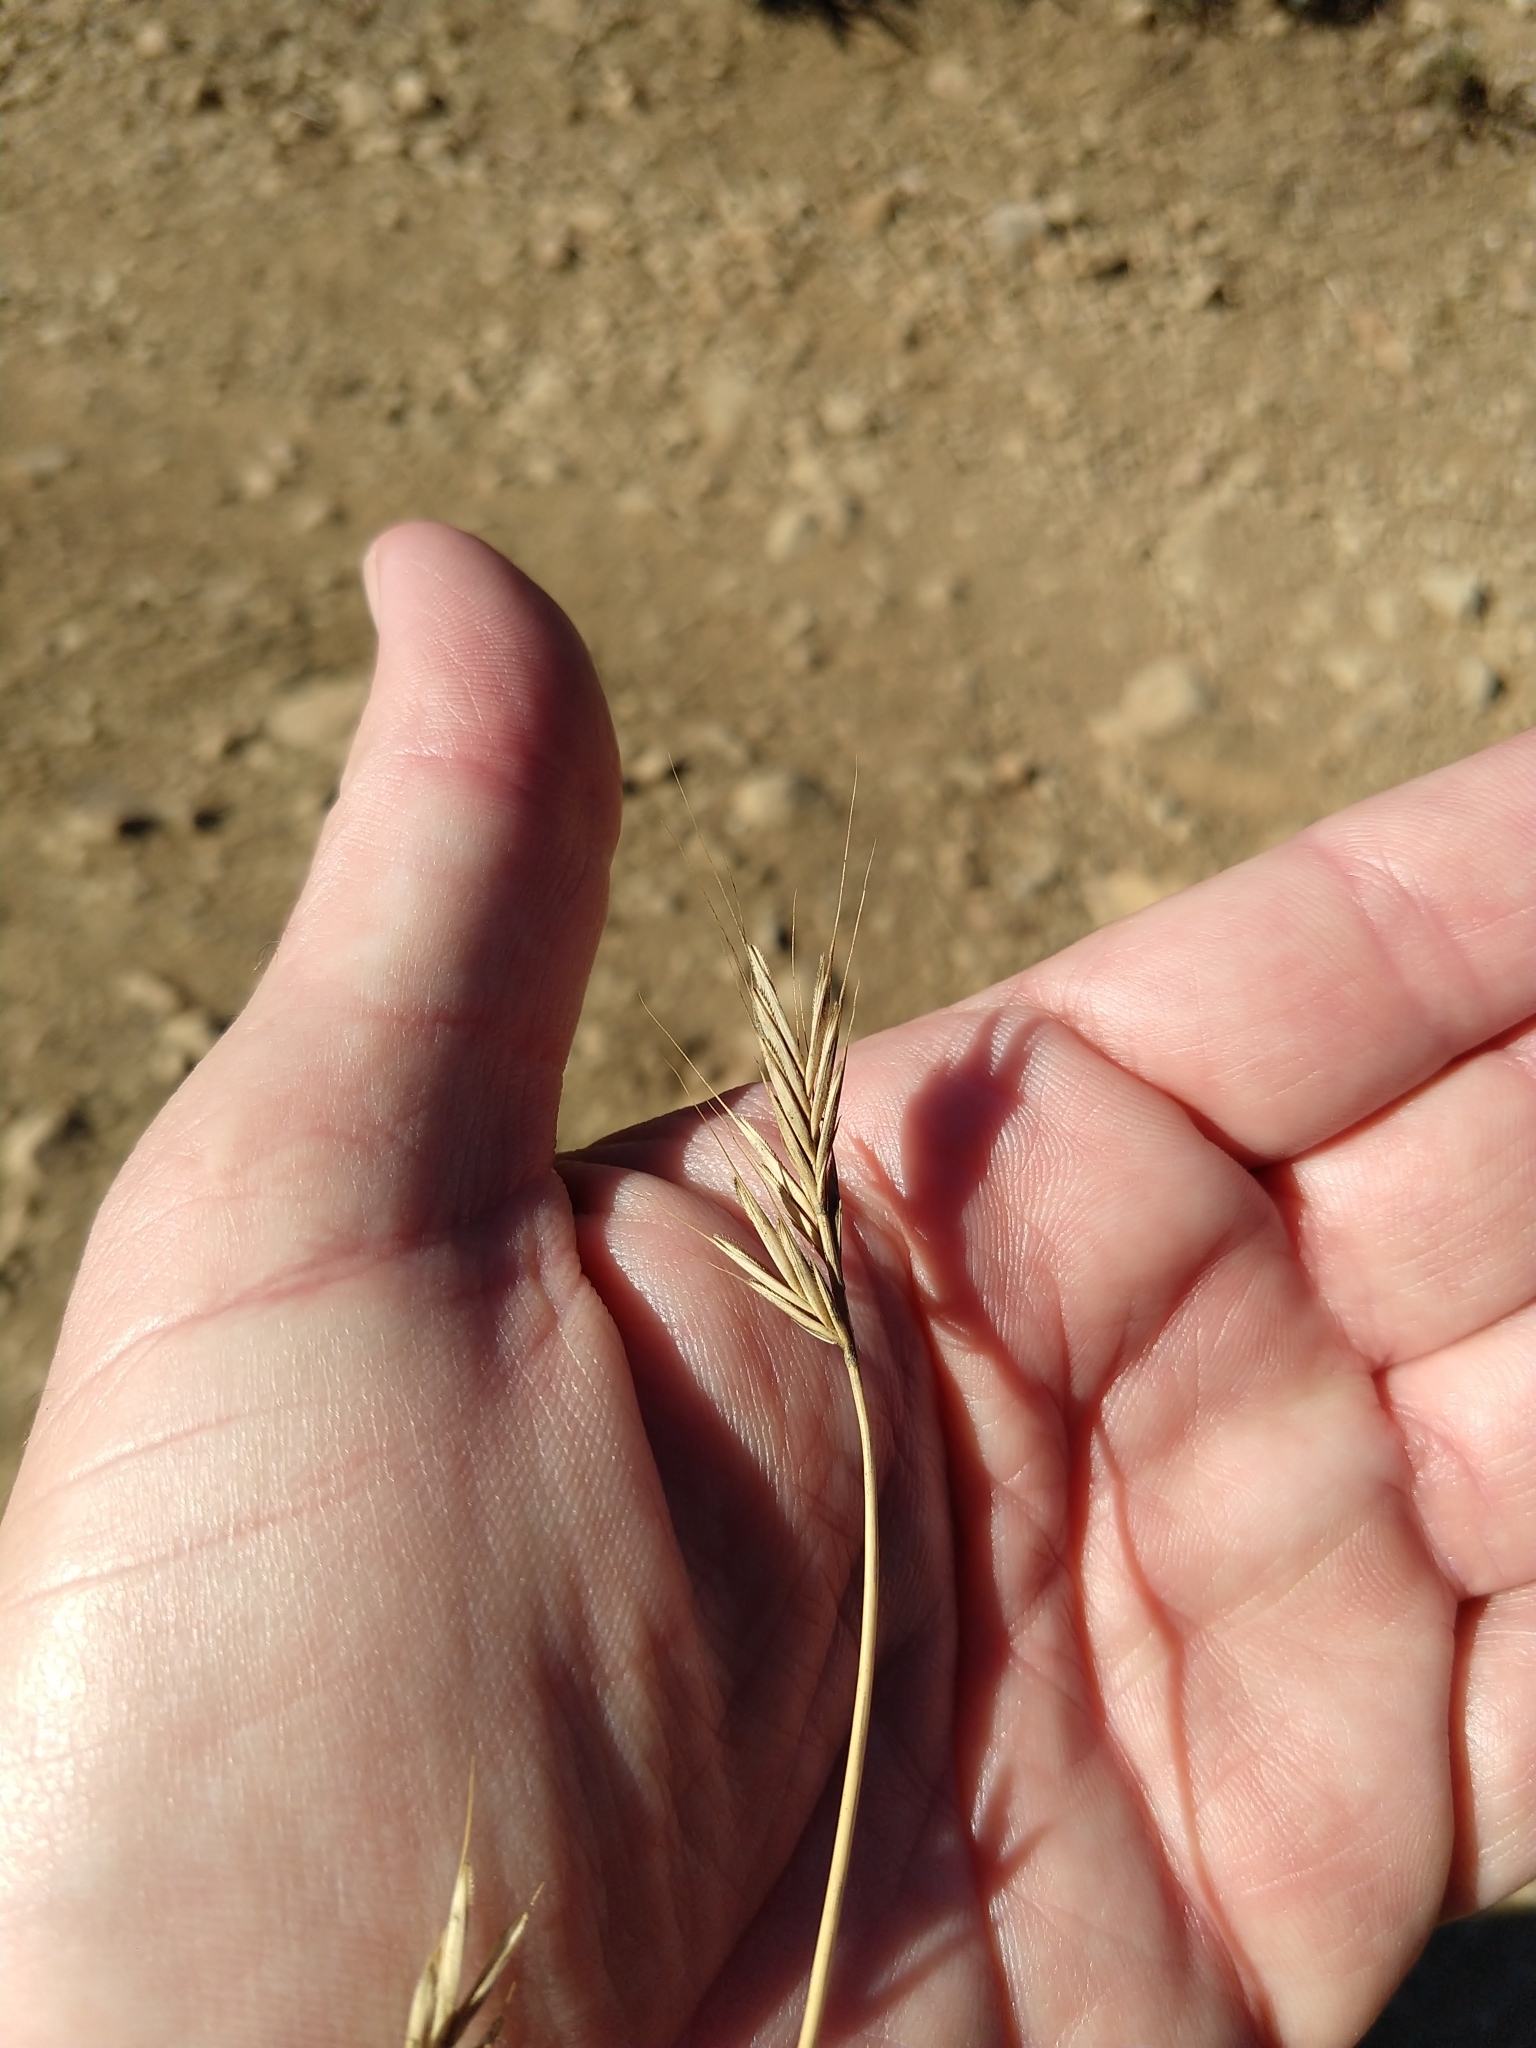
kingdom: Plantae
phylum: Tracheophyta
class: Liliopsida
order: Poales
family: Poaceae
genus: Brachypodium
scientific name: Brachypodium distachyon
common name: Stiff brome
